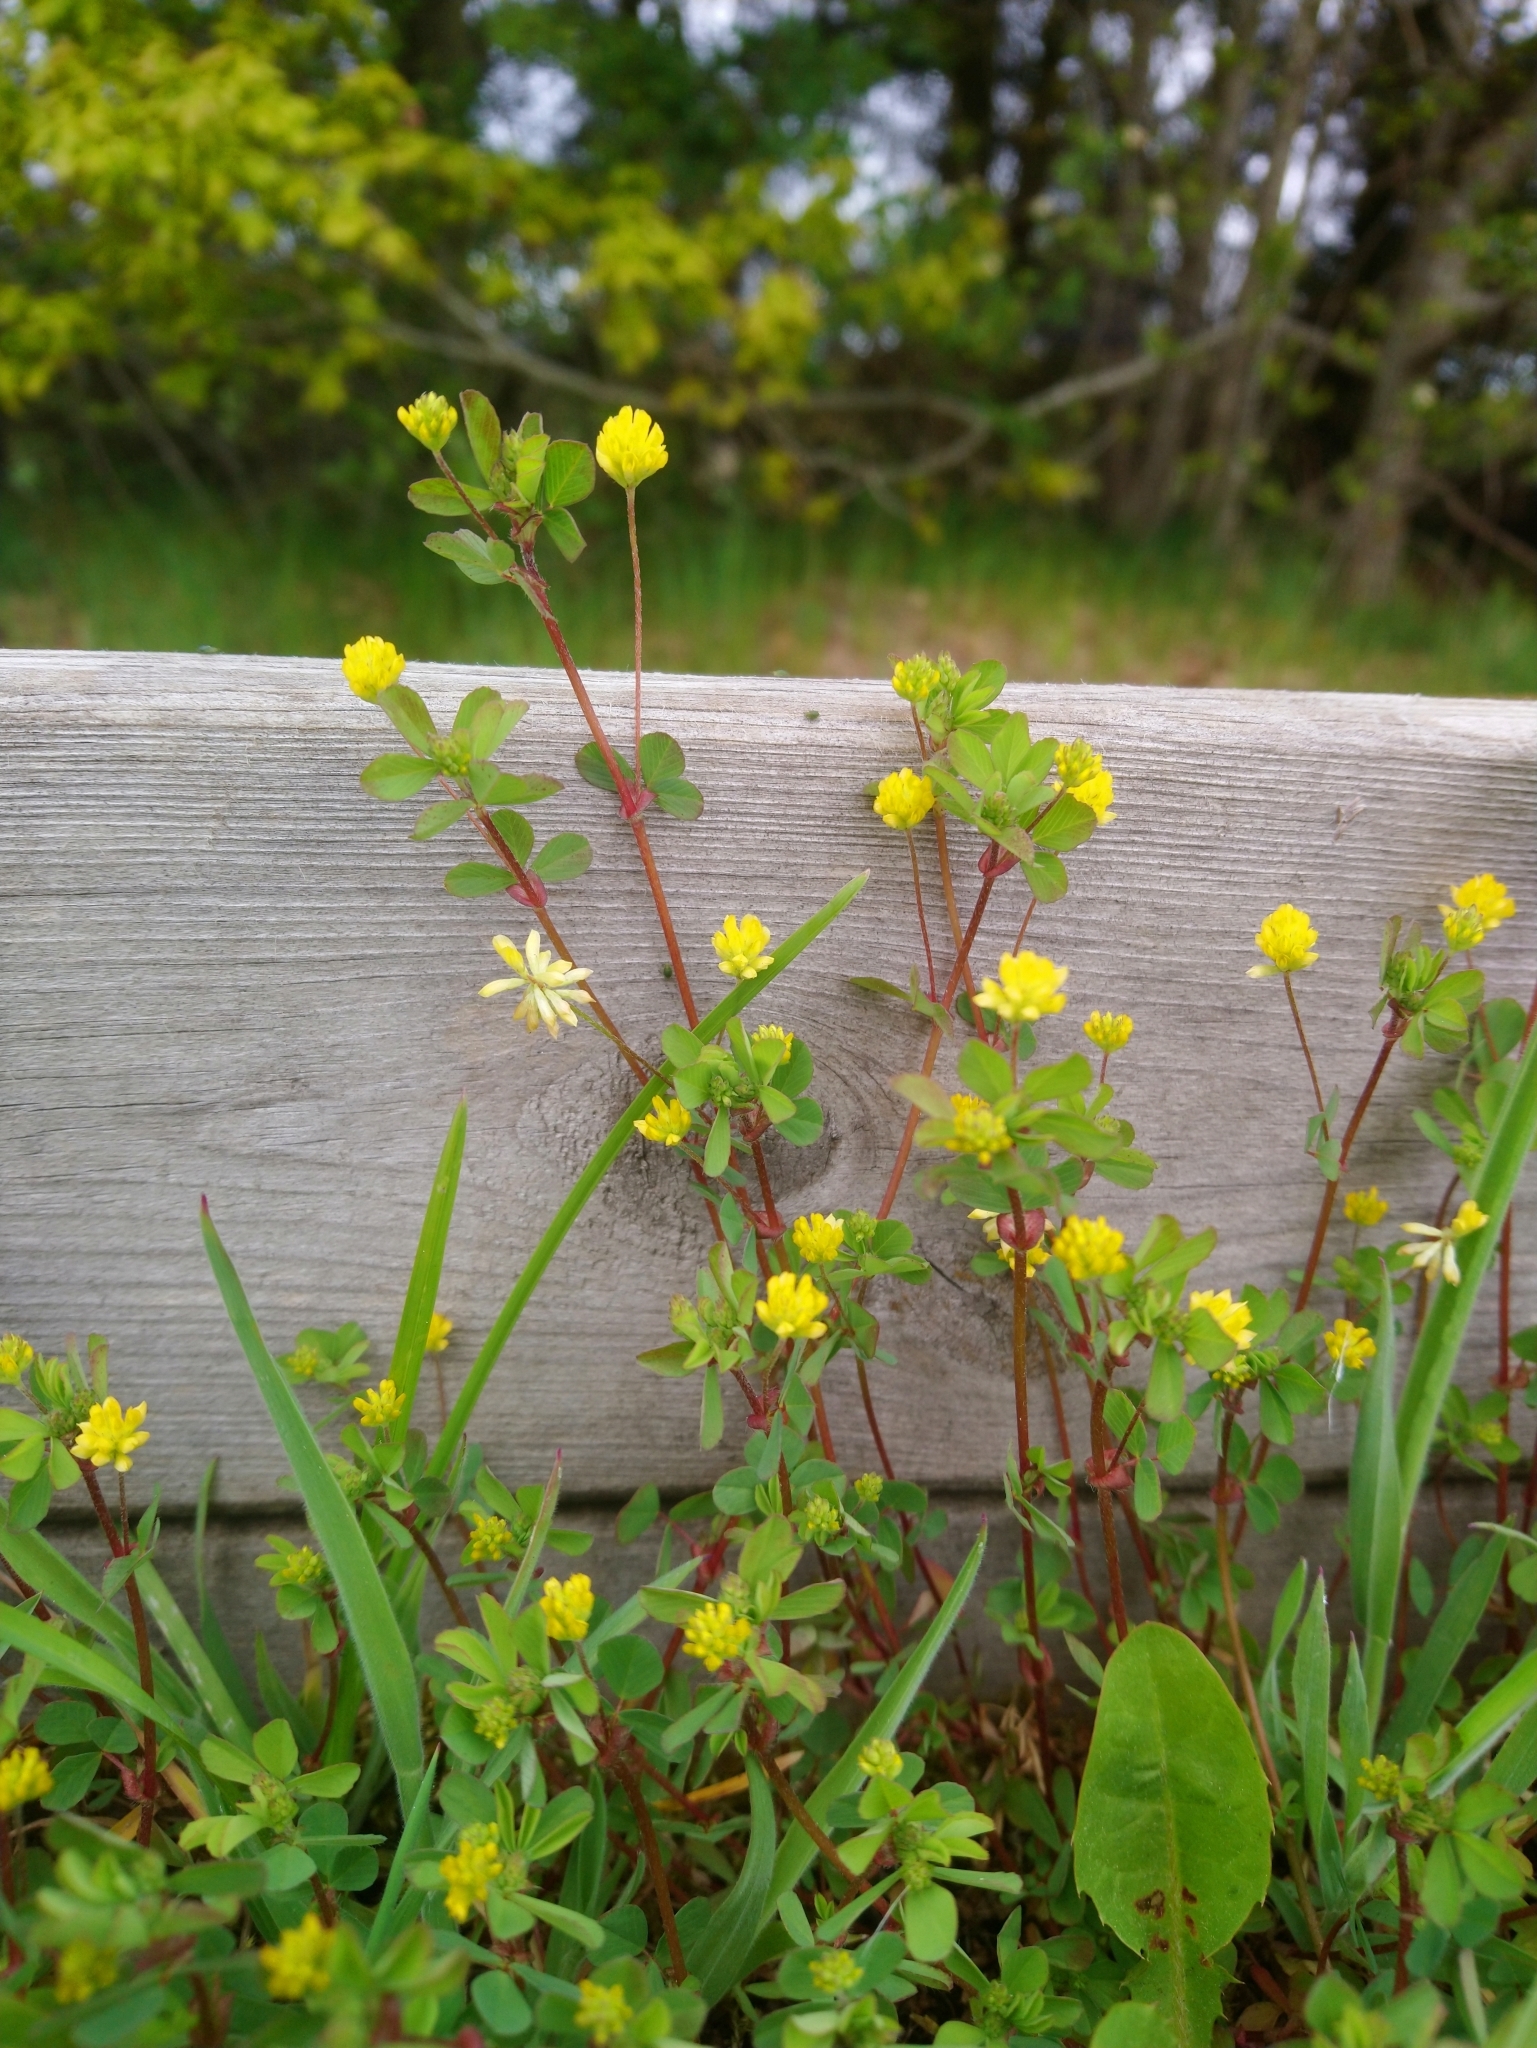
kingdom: Plantae
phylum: Tracheophyta
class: Magnoliopsida
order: Fabales
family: Fabaceae
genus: Trifolium
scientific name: Trifolium dubium
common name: Suckling clover
